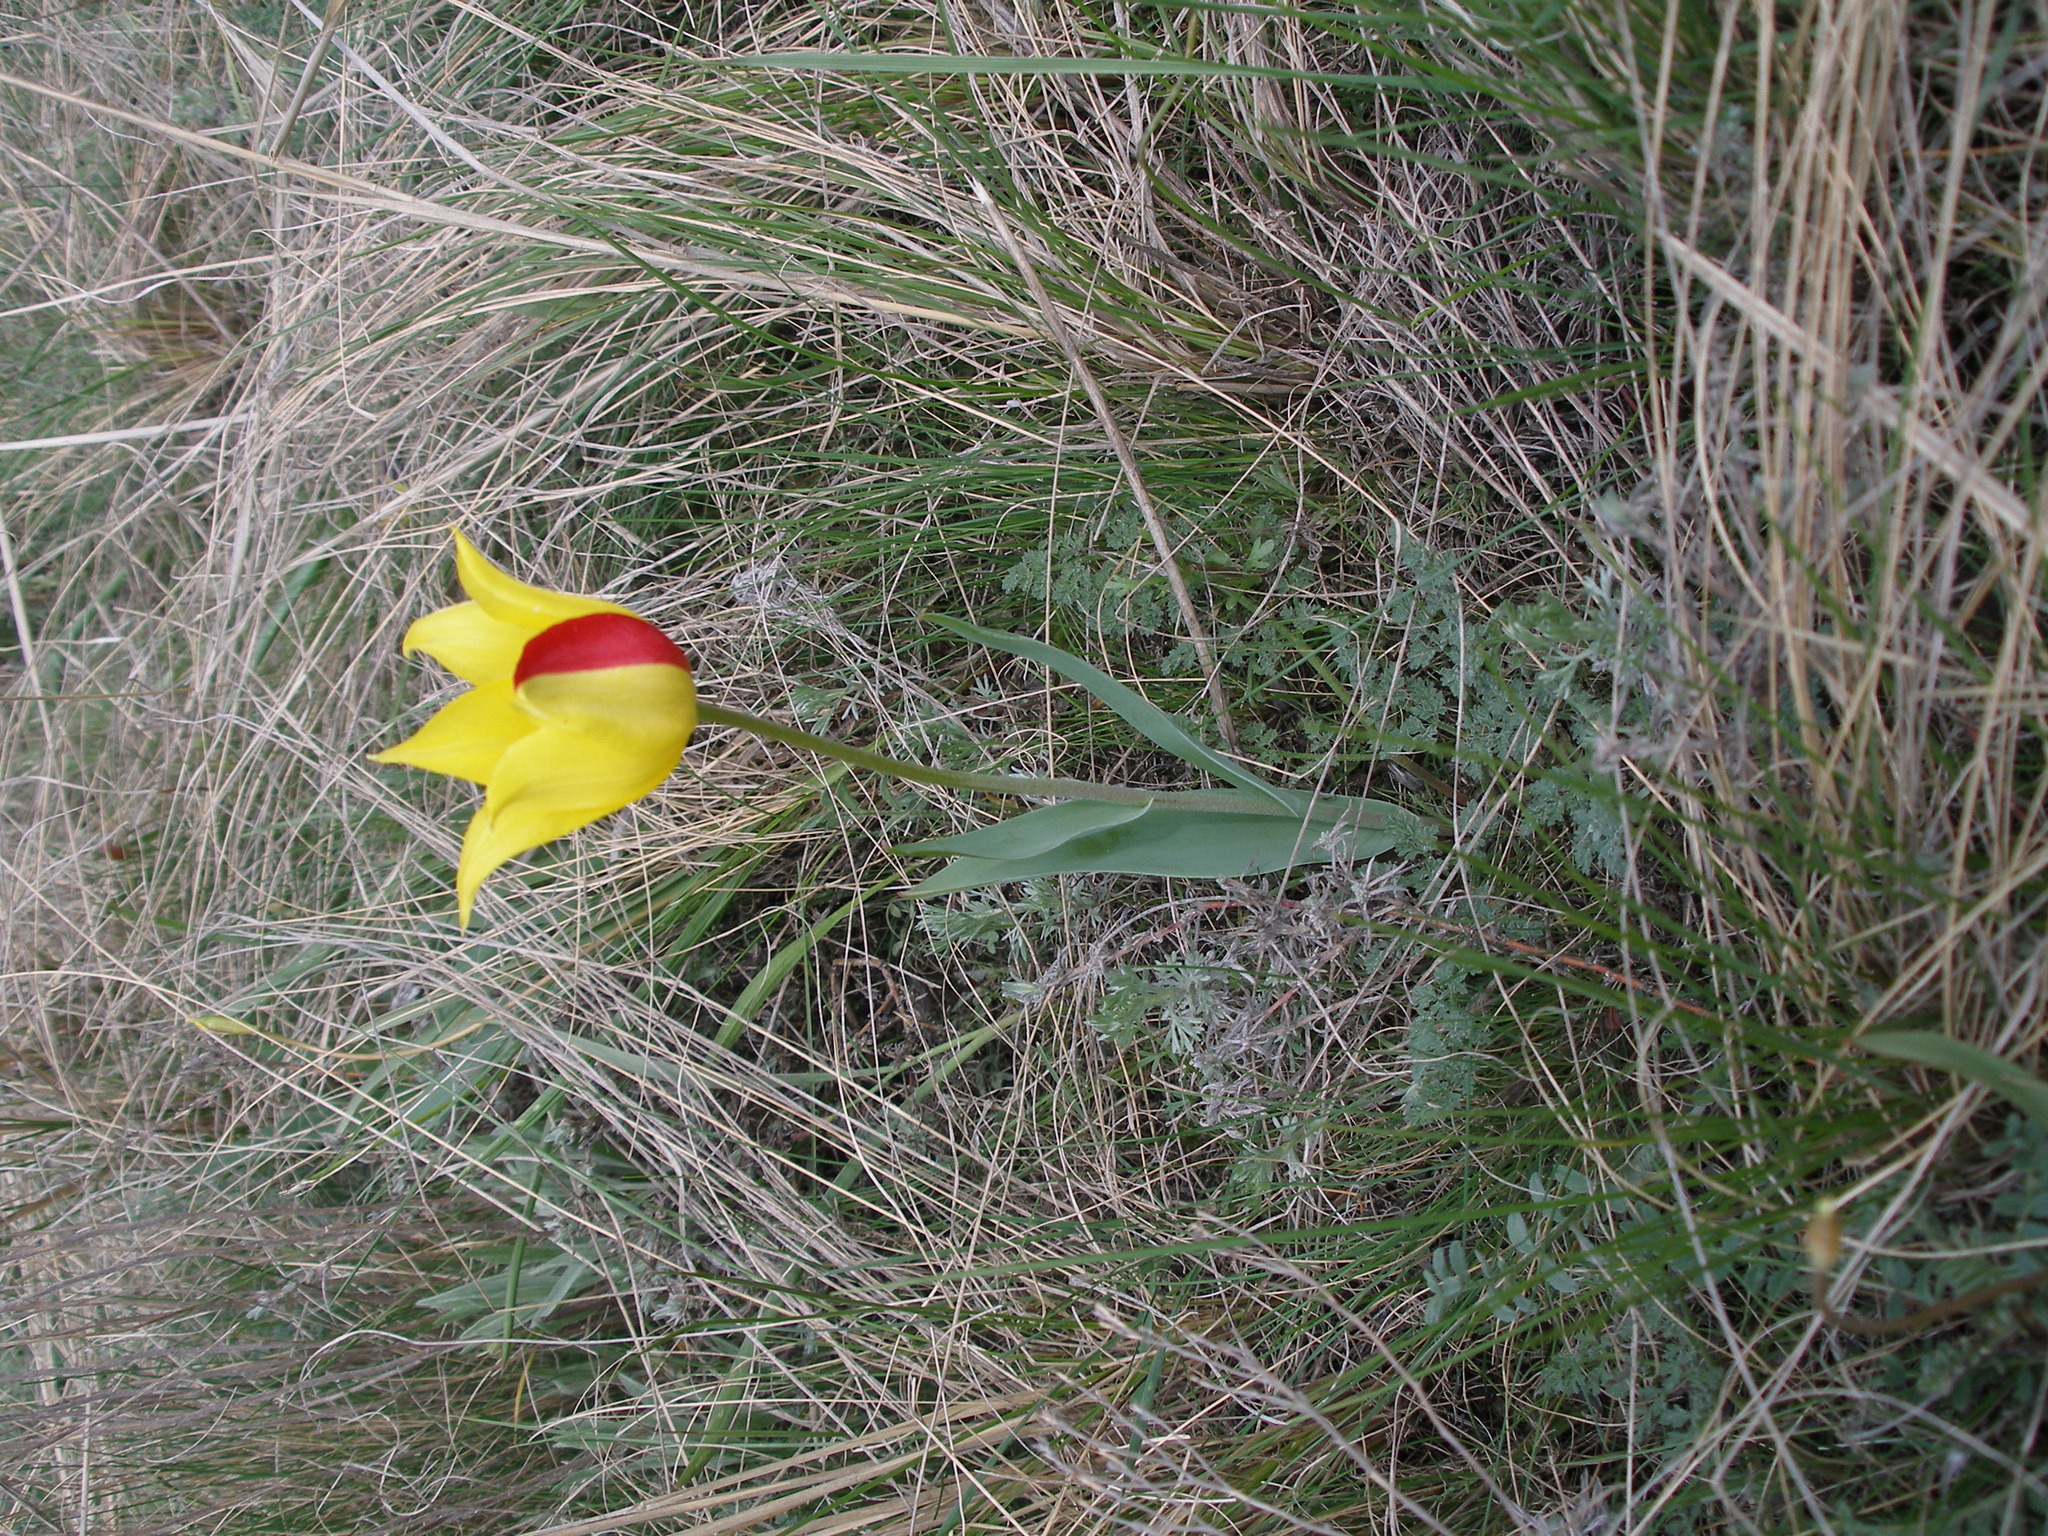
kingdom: Plantae
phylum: Tracheophyta
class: Liliopsida
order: Liliales
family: Liliaceae
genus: Tulipa
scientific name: Tulipa suaveolens
